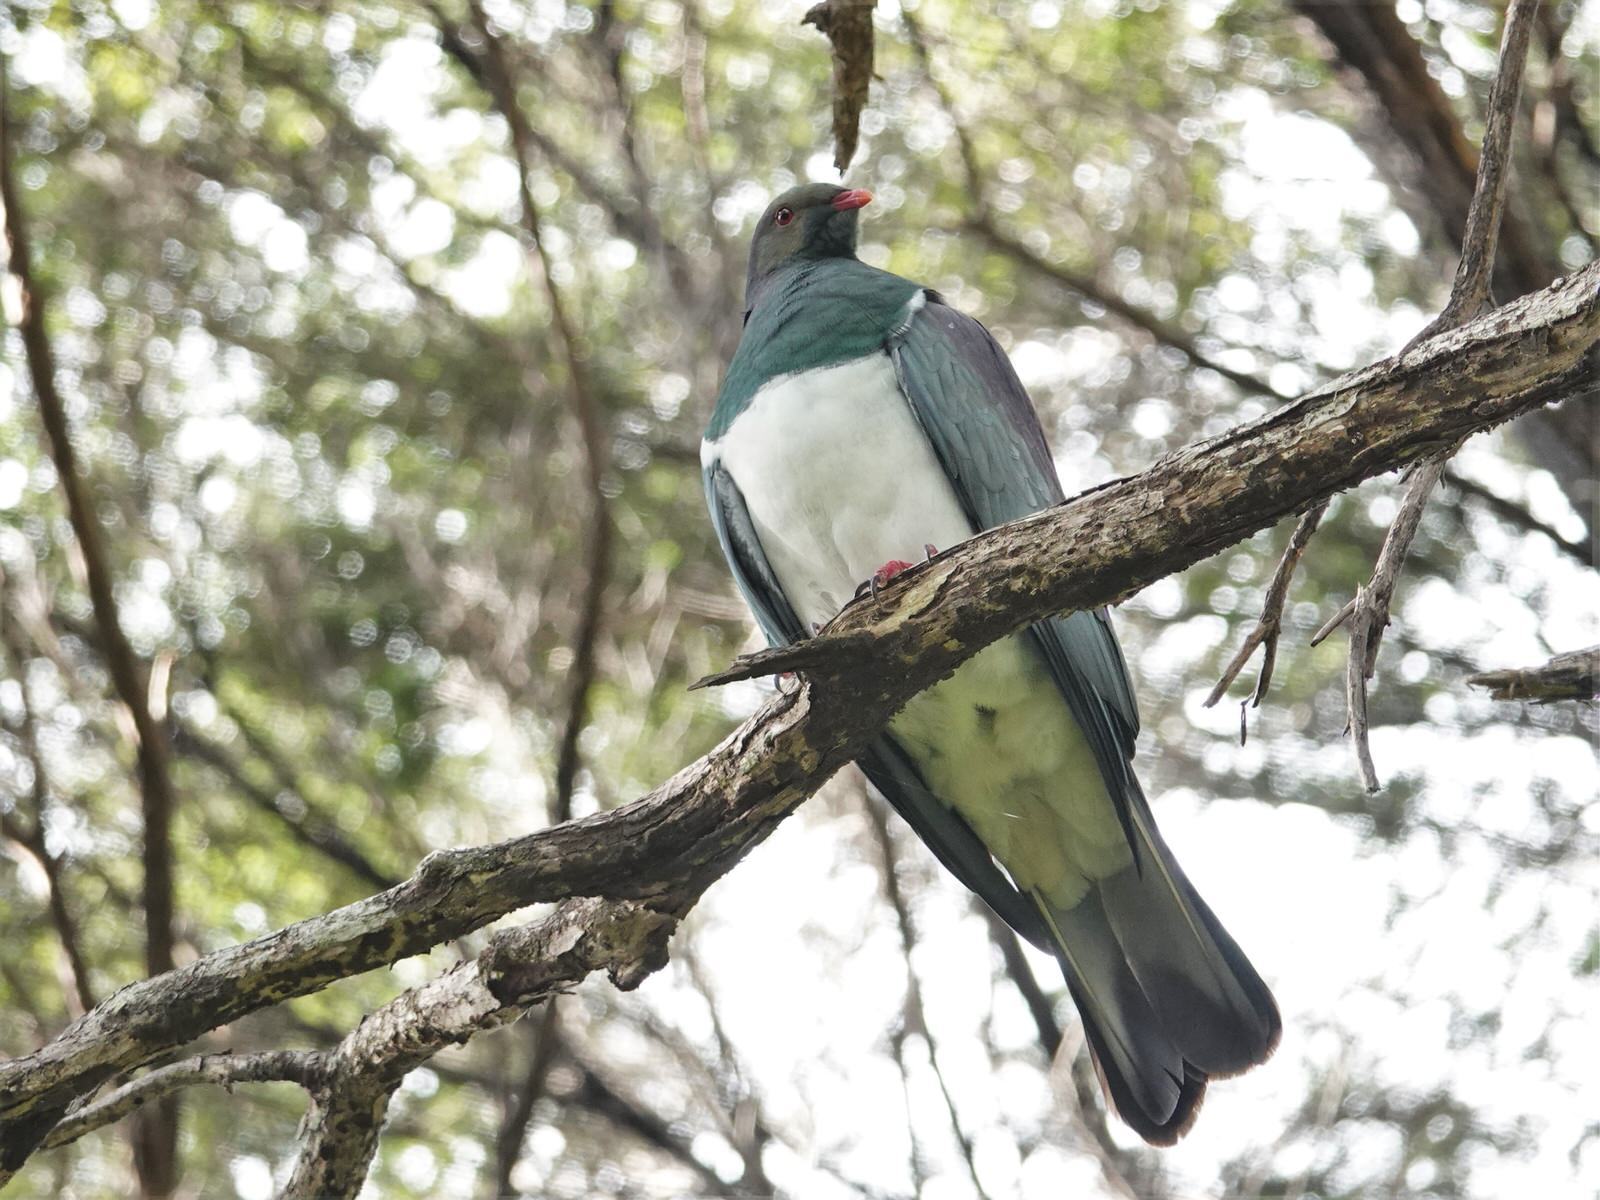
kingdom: Animalia
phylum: Chordata
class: Aves
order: Columbiformes
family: Columbidae
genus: Hemiphaga
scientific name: Hemiphaga novaeseelandiae
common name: New zealand pigeon
